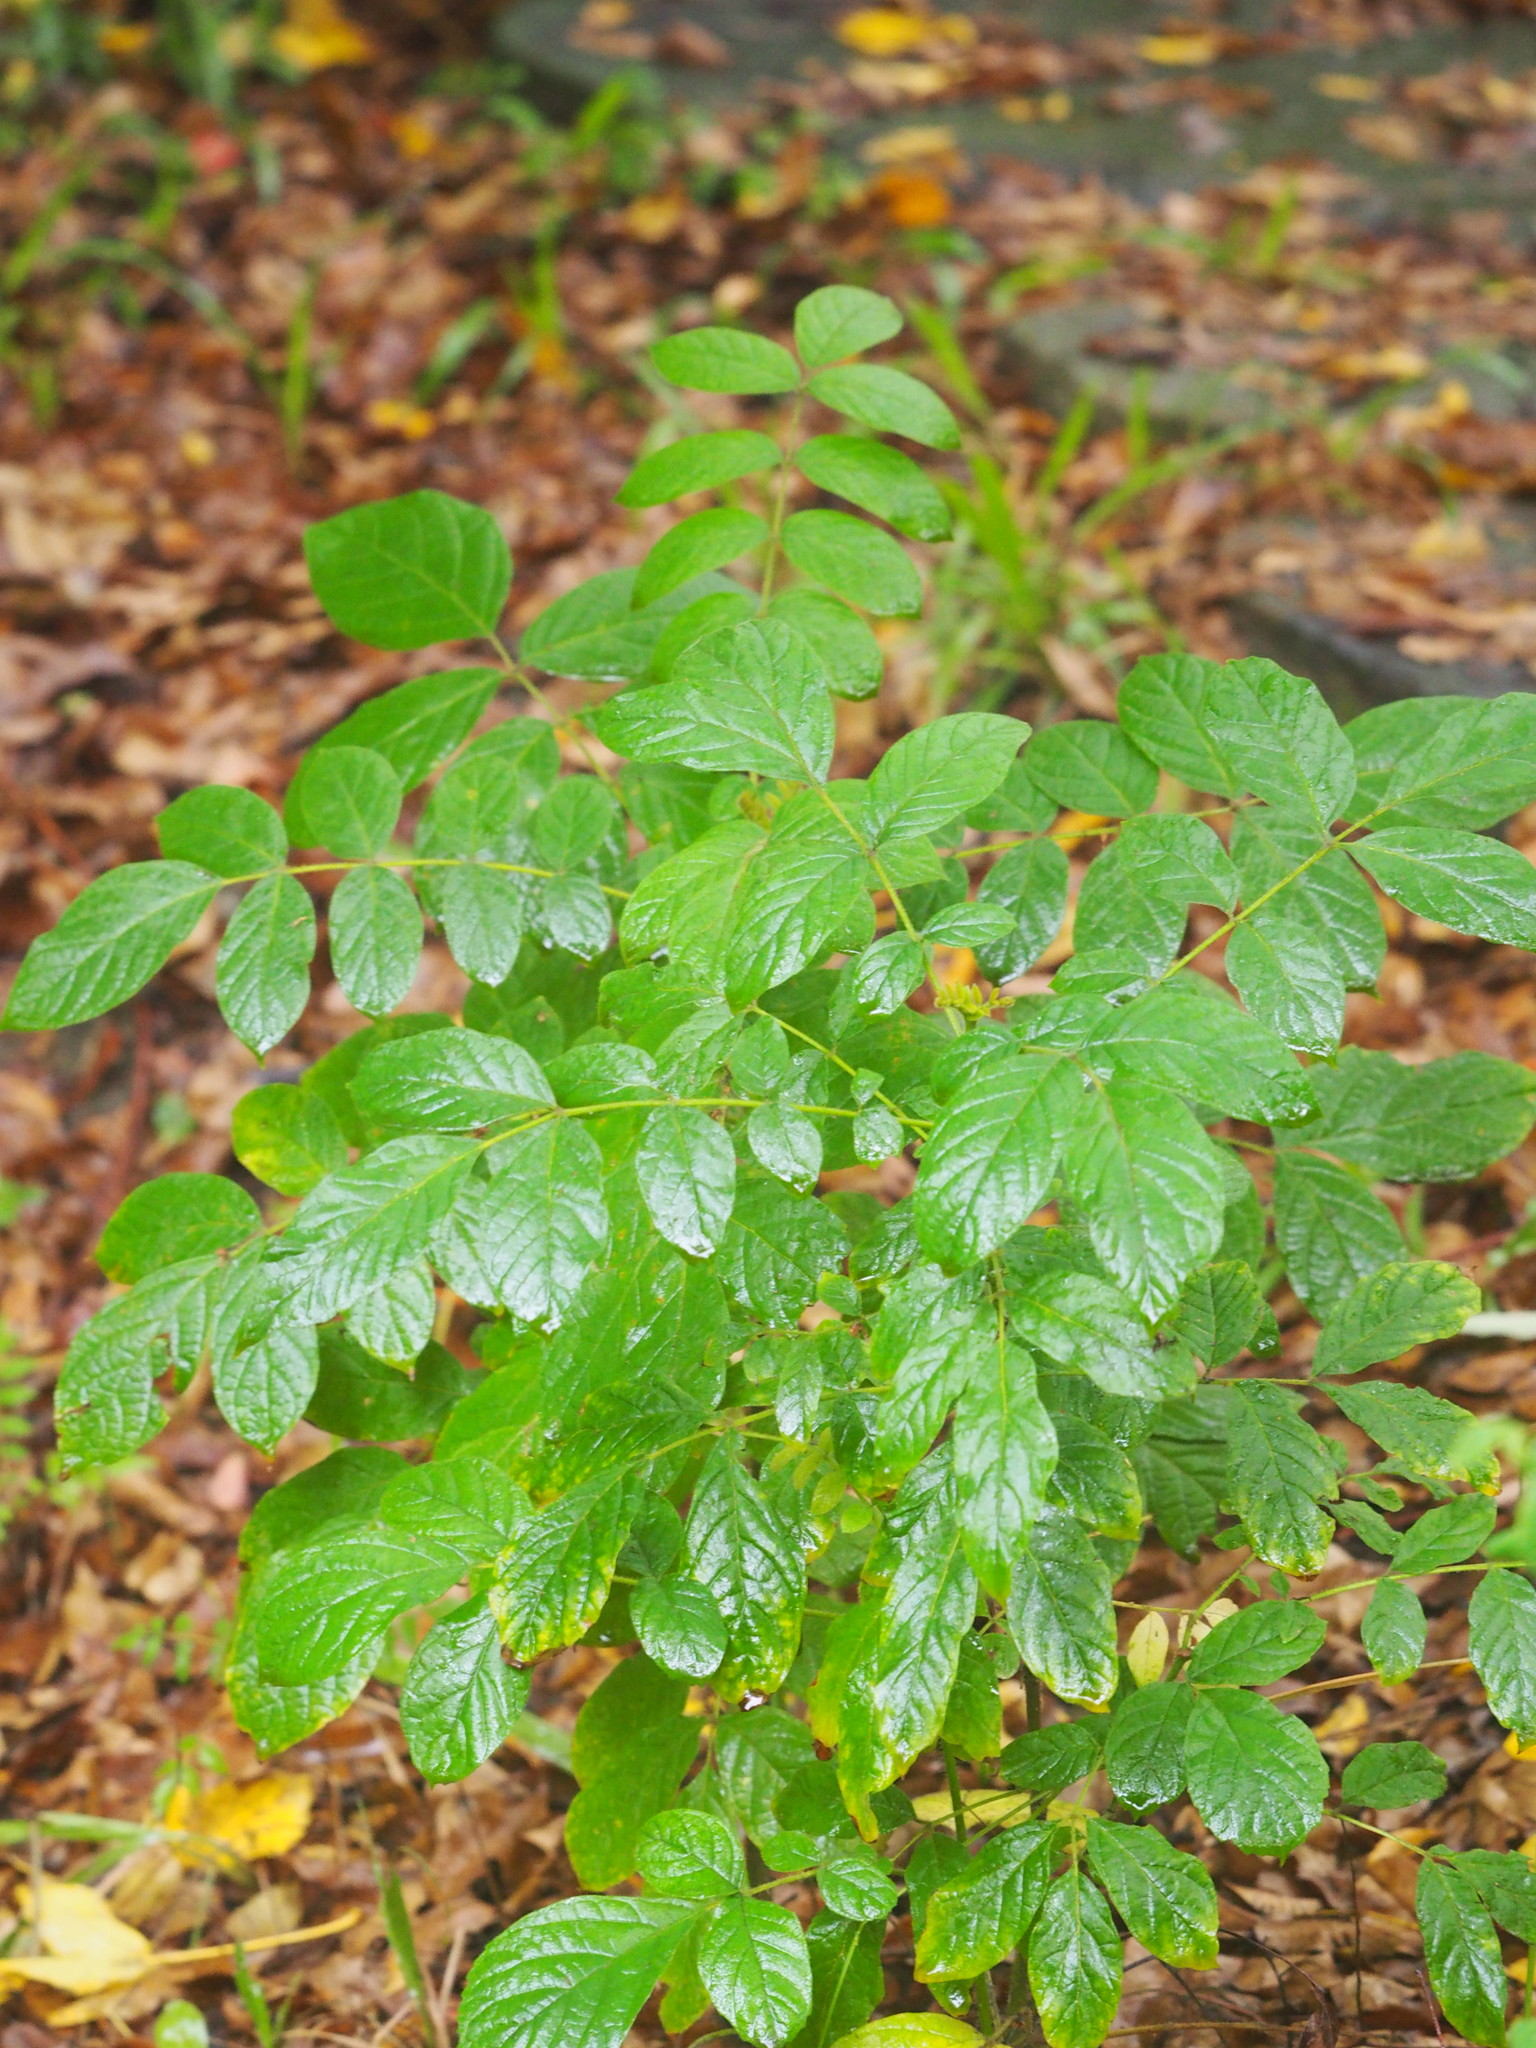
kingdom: Plantae
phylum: Tracheophyta
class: Magnoliopsida
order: Lamiales
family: Bignoniaceae
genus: Spathodea
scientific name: Spathodea campanulata
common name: African tuliptree
